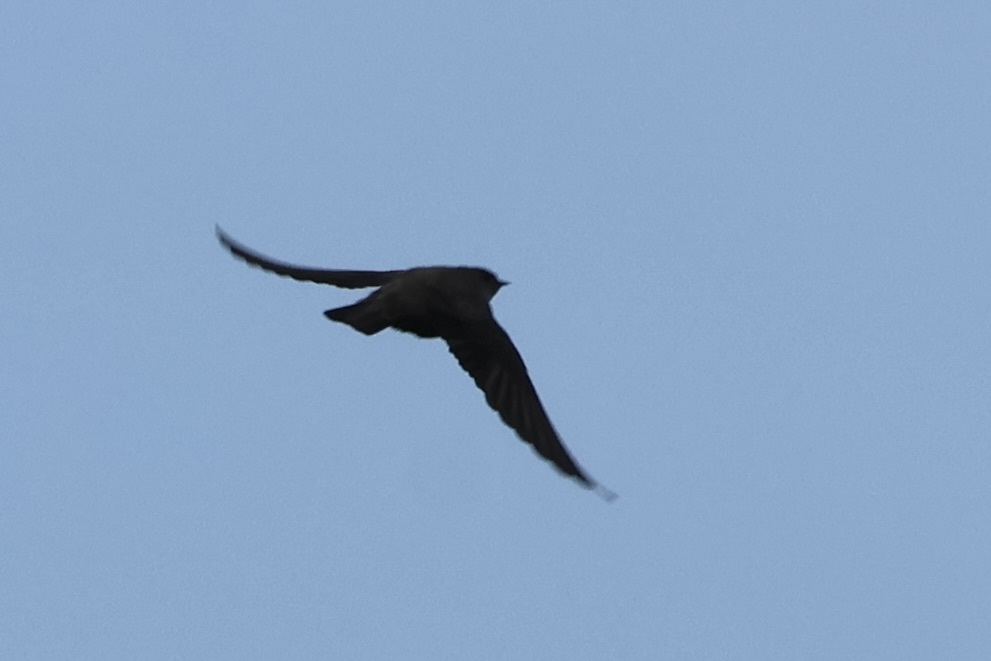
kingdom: Animalia
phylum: Chordata
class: Aves
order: Passeriformes
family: Hirundinidae
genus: Ptyonoprogne
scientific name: Ptyonoprogne rupestris
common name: Eurasian crag martin
